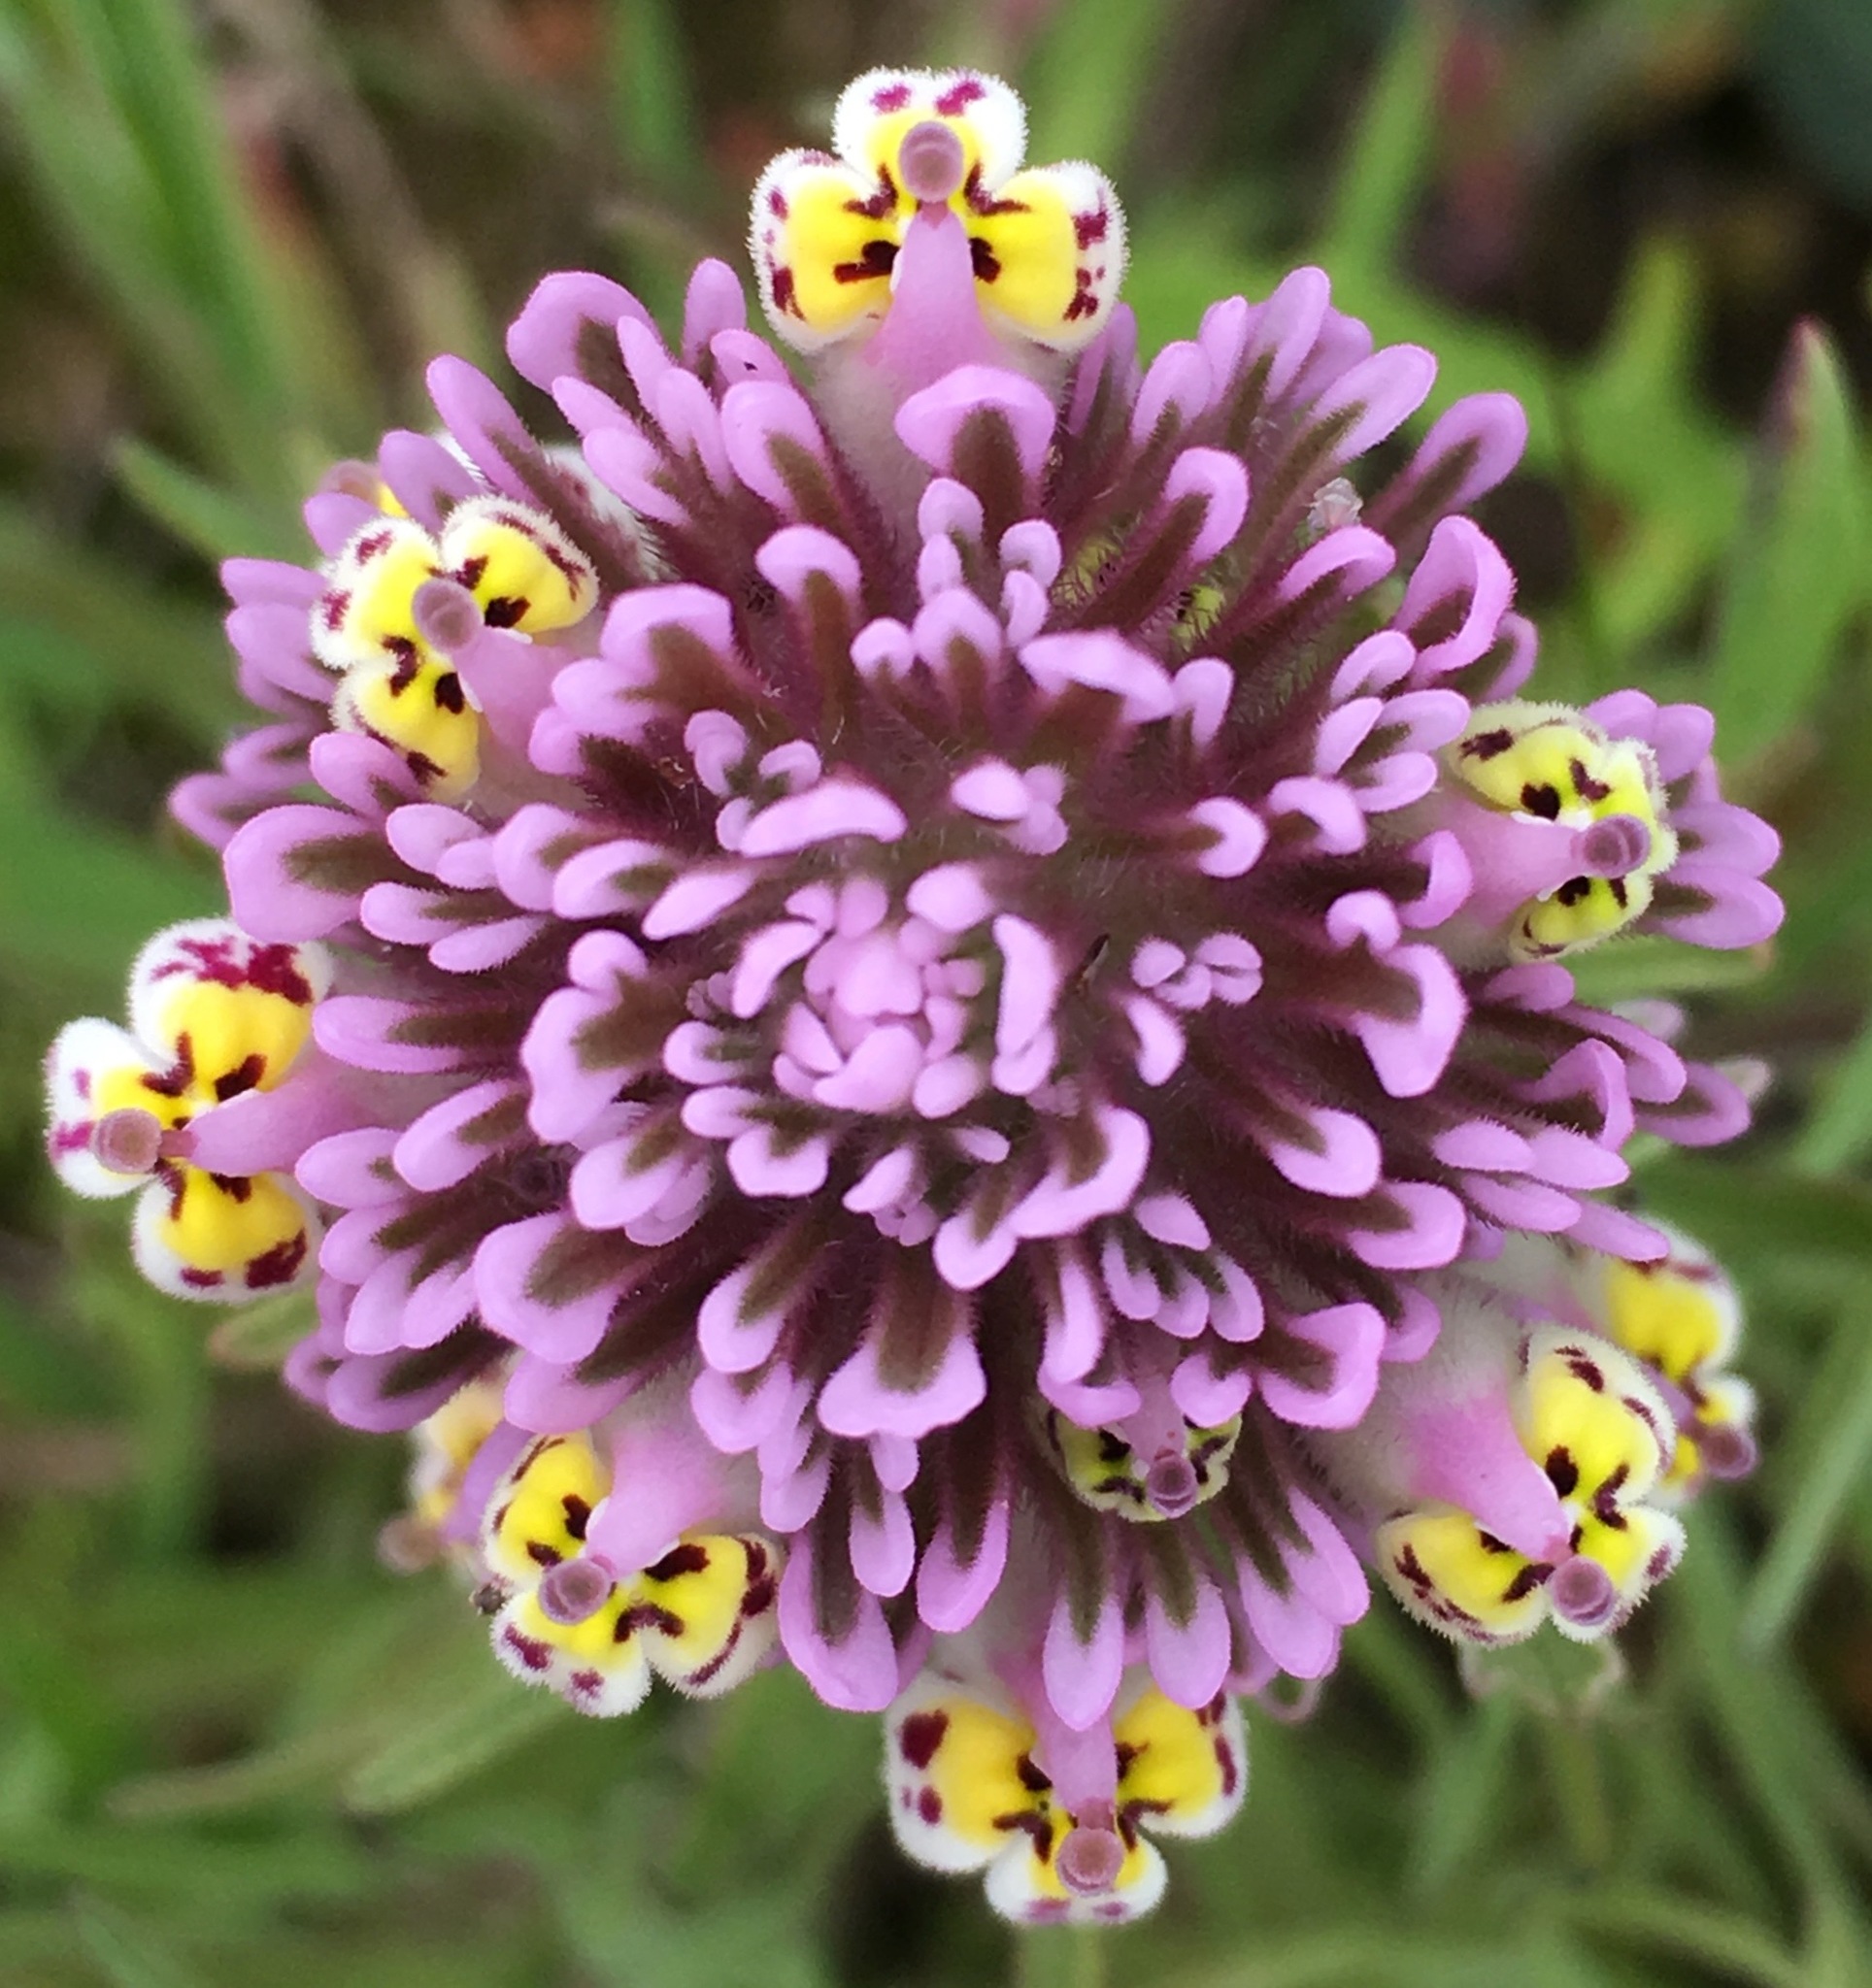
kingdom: Plantae
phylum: Tracheophyta
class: Magnoliopsida
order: Lamiales
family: Orobanchaceae
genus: Castilleja
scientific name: Castilleja densiflora
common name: Dense-flower indian paintbrush
